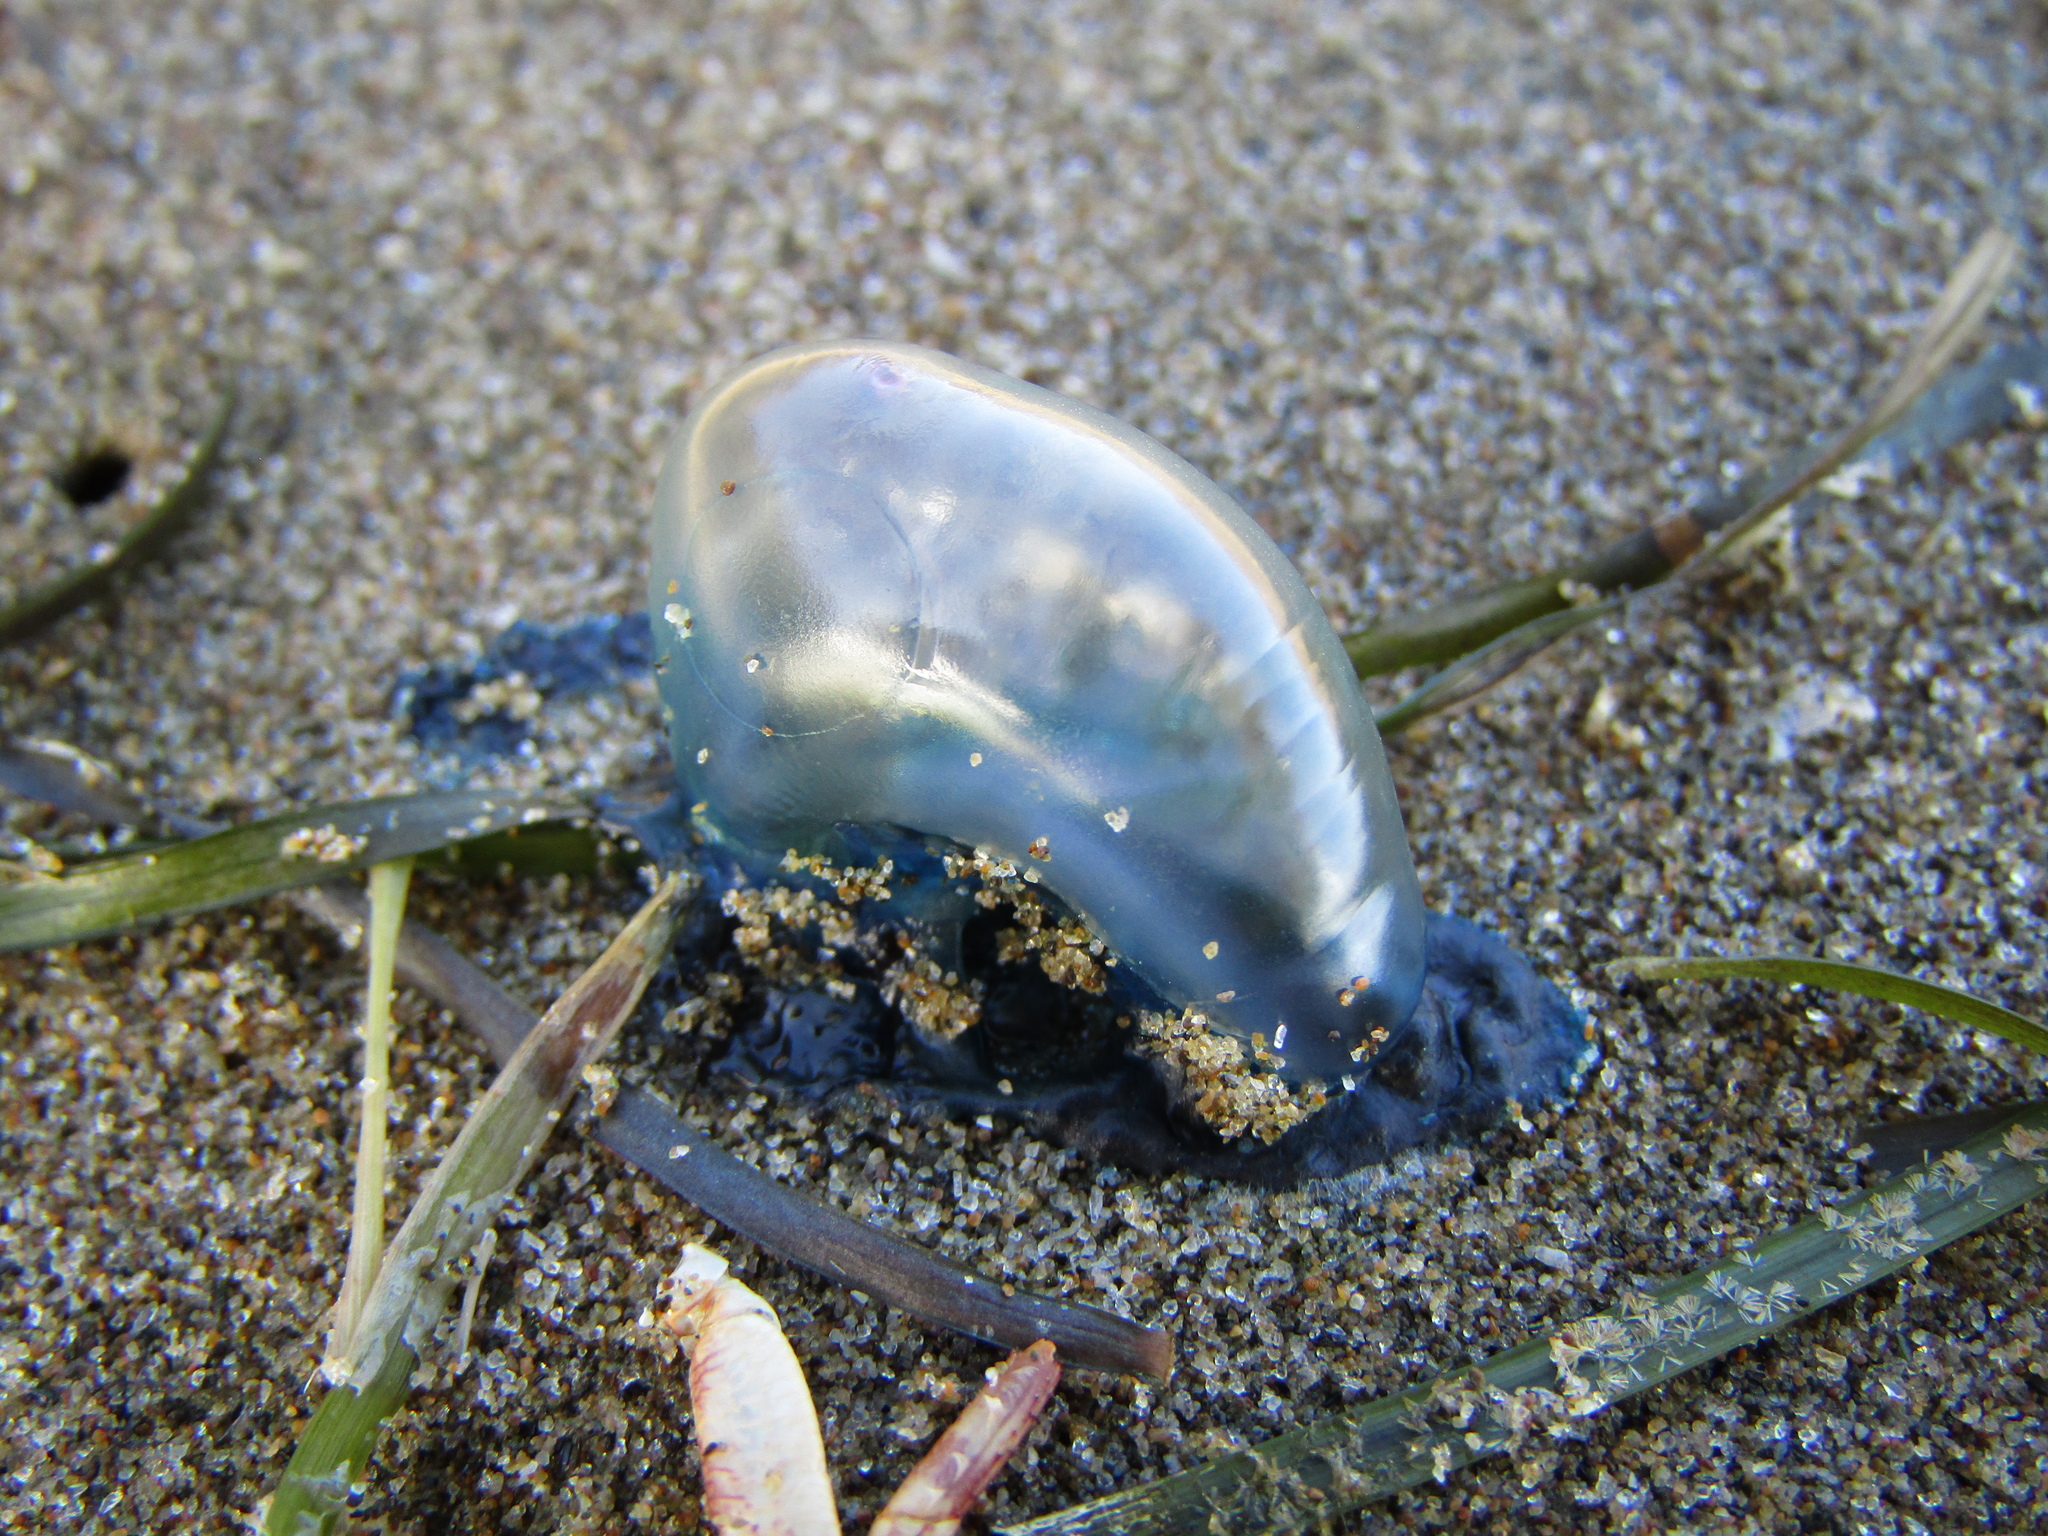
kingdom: Animalia
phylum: Cnidaria
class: Hydrozoa
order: Siphonophorae
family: Physaliidae
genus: Physalia
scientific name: Physalia physalis
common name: Portuguese man-of-war
